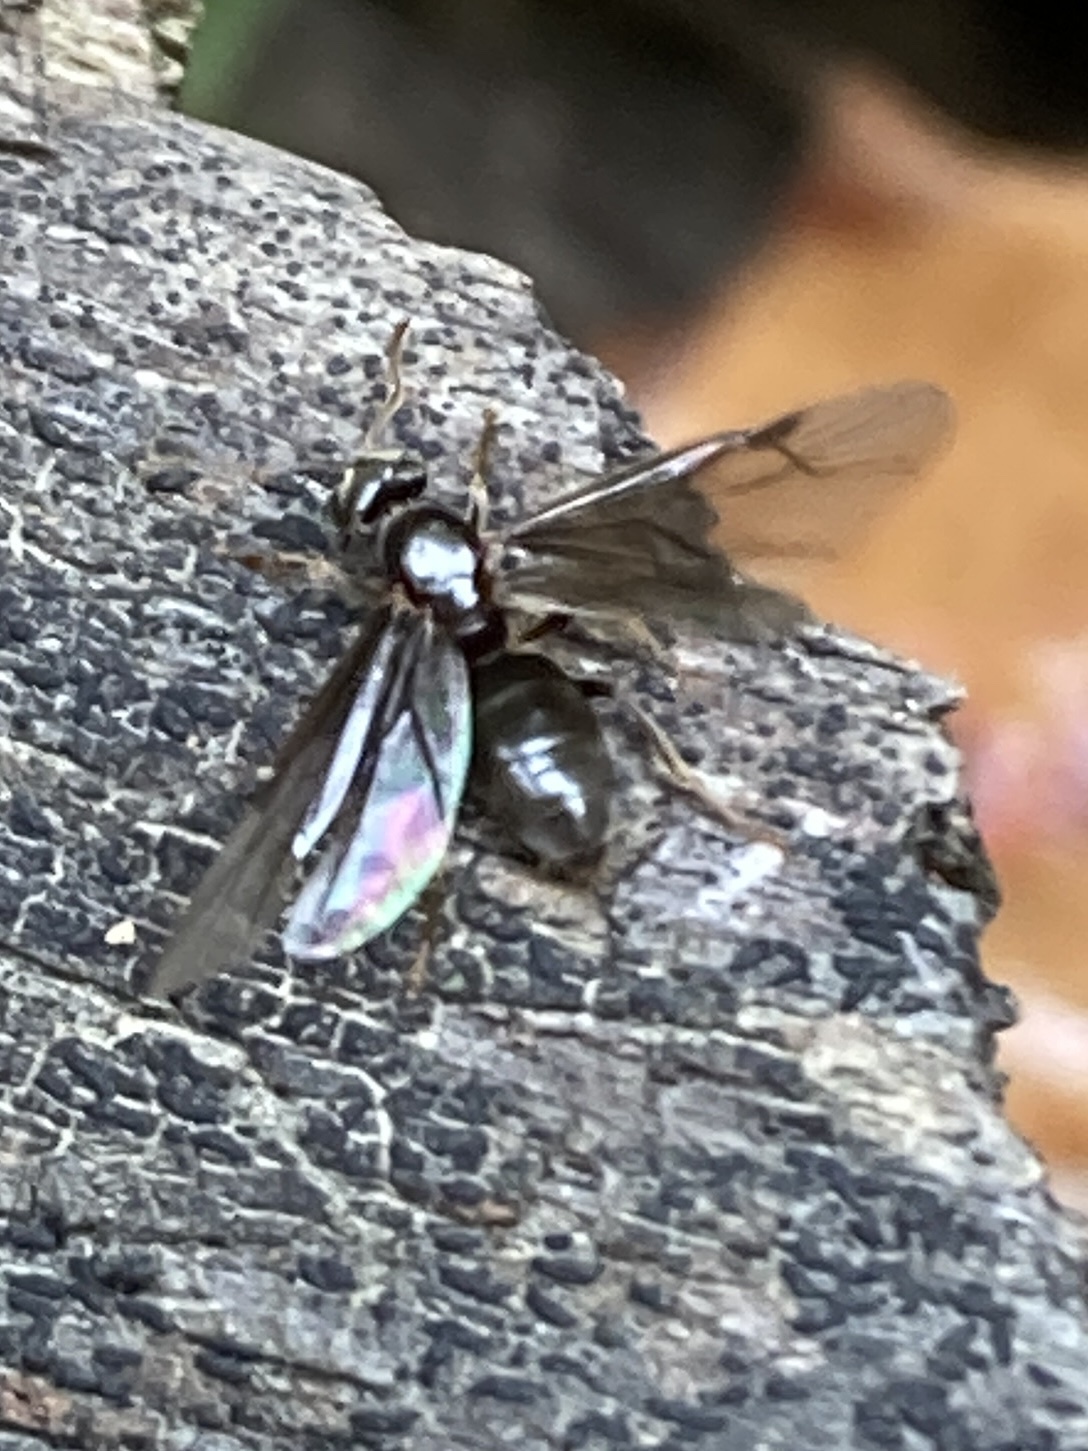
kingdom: Animalia
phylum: Arthropoda
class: Insecta
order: Hymenoptera
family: Formicidae
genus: Lasius
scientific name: Lasius aphidicola
